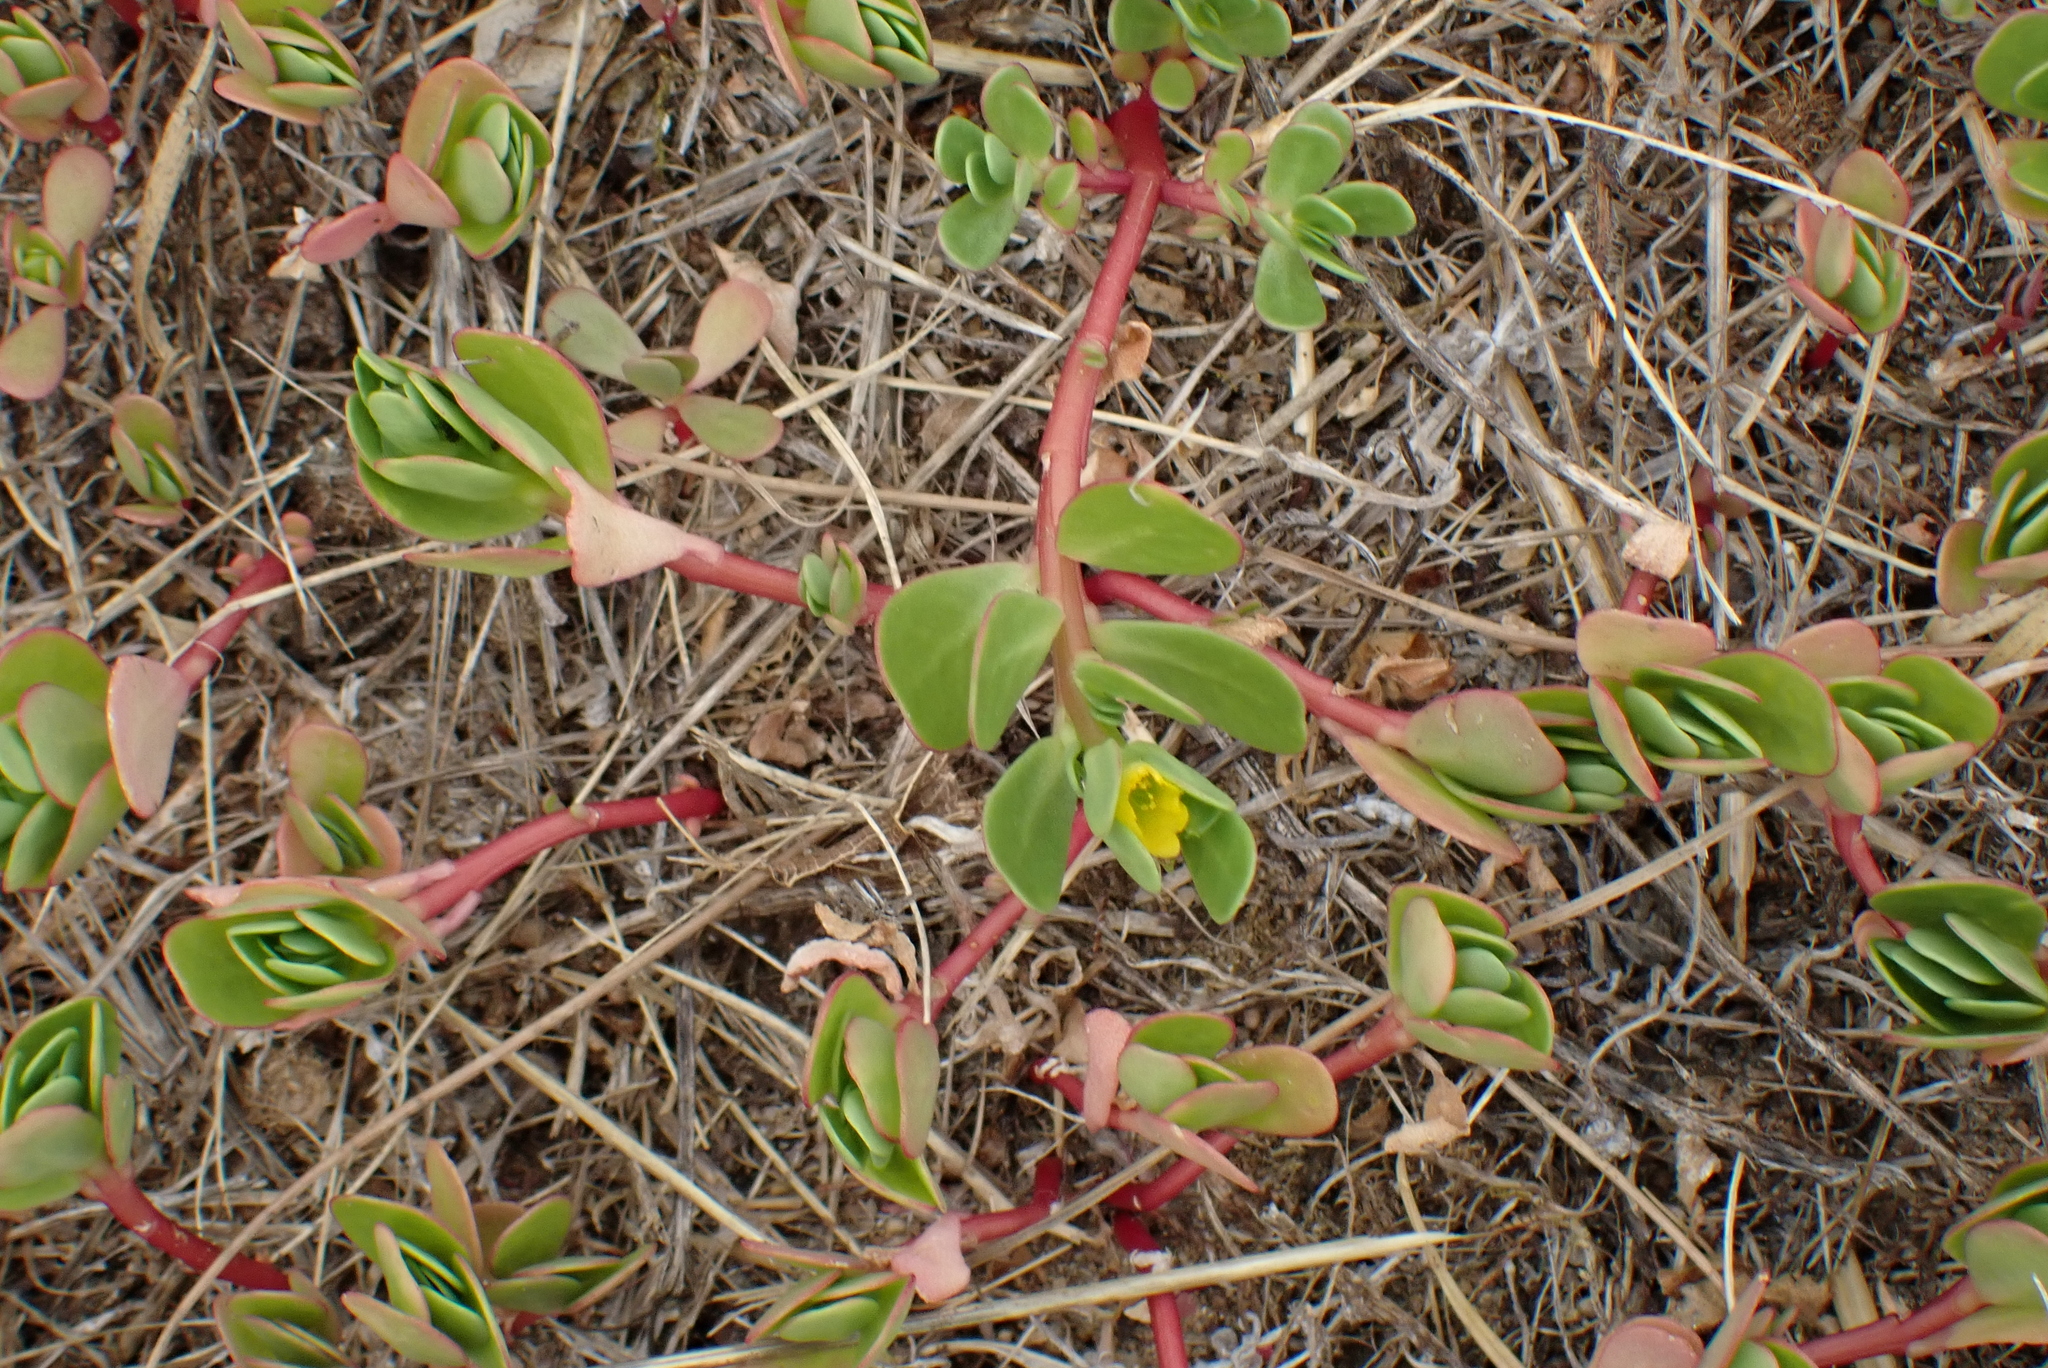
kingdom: Plantae
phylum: Tracheophyta
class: Magnoliopsida
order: Caryophyllales
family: Portulacaceae
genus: Portulaca
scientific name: Portulaca oleracea
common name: Common purslane
